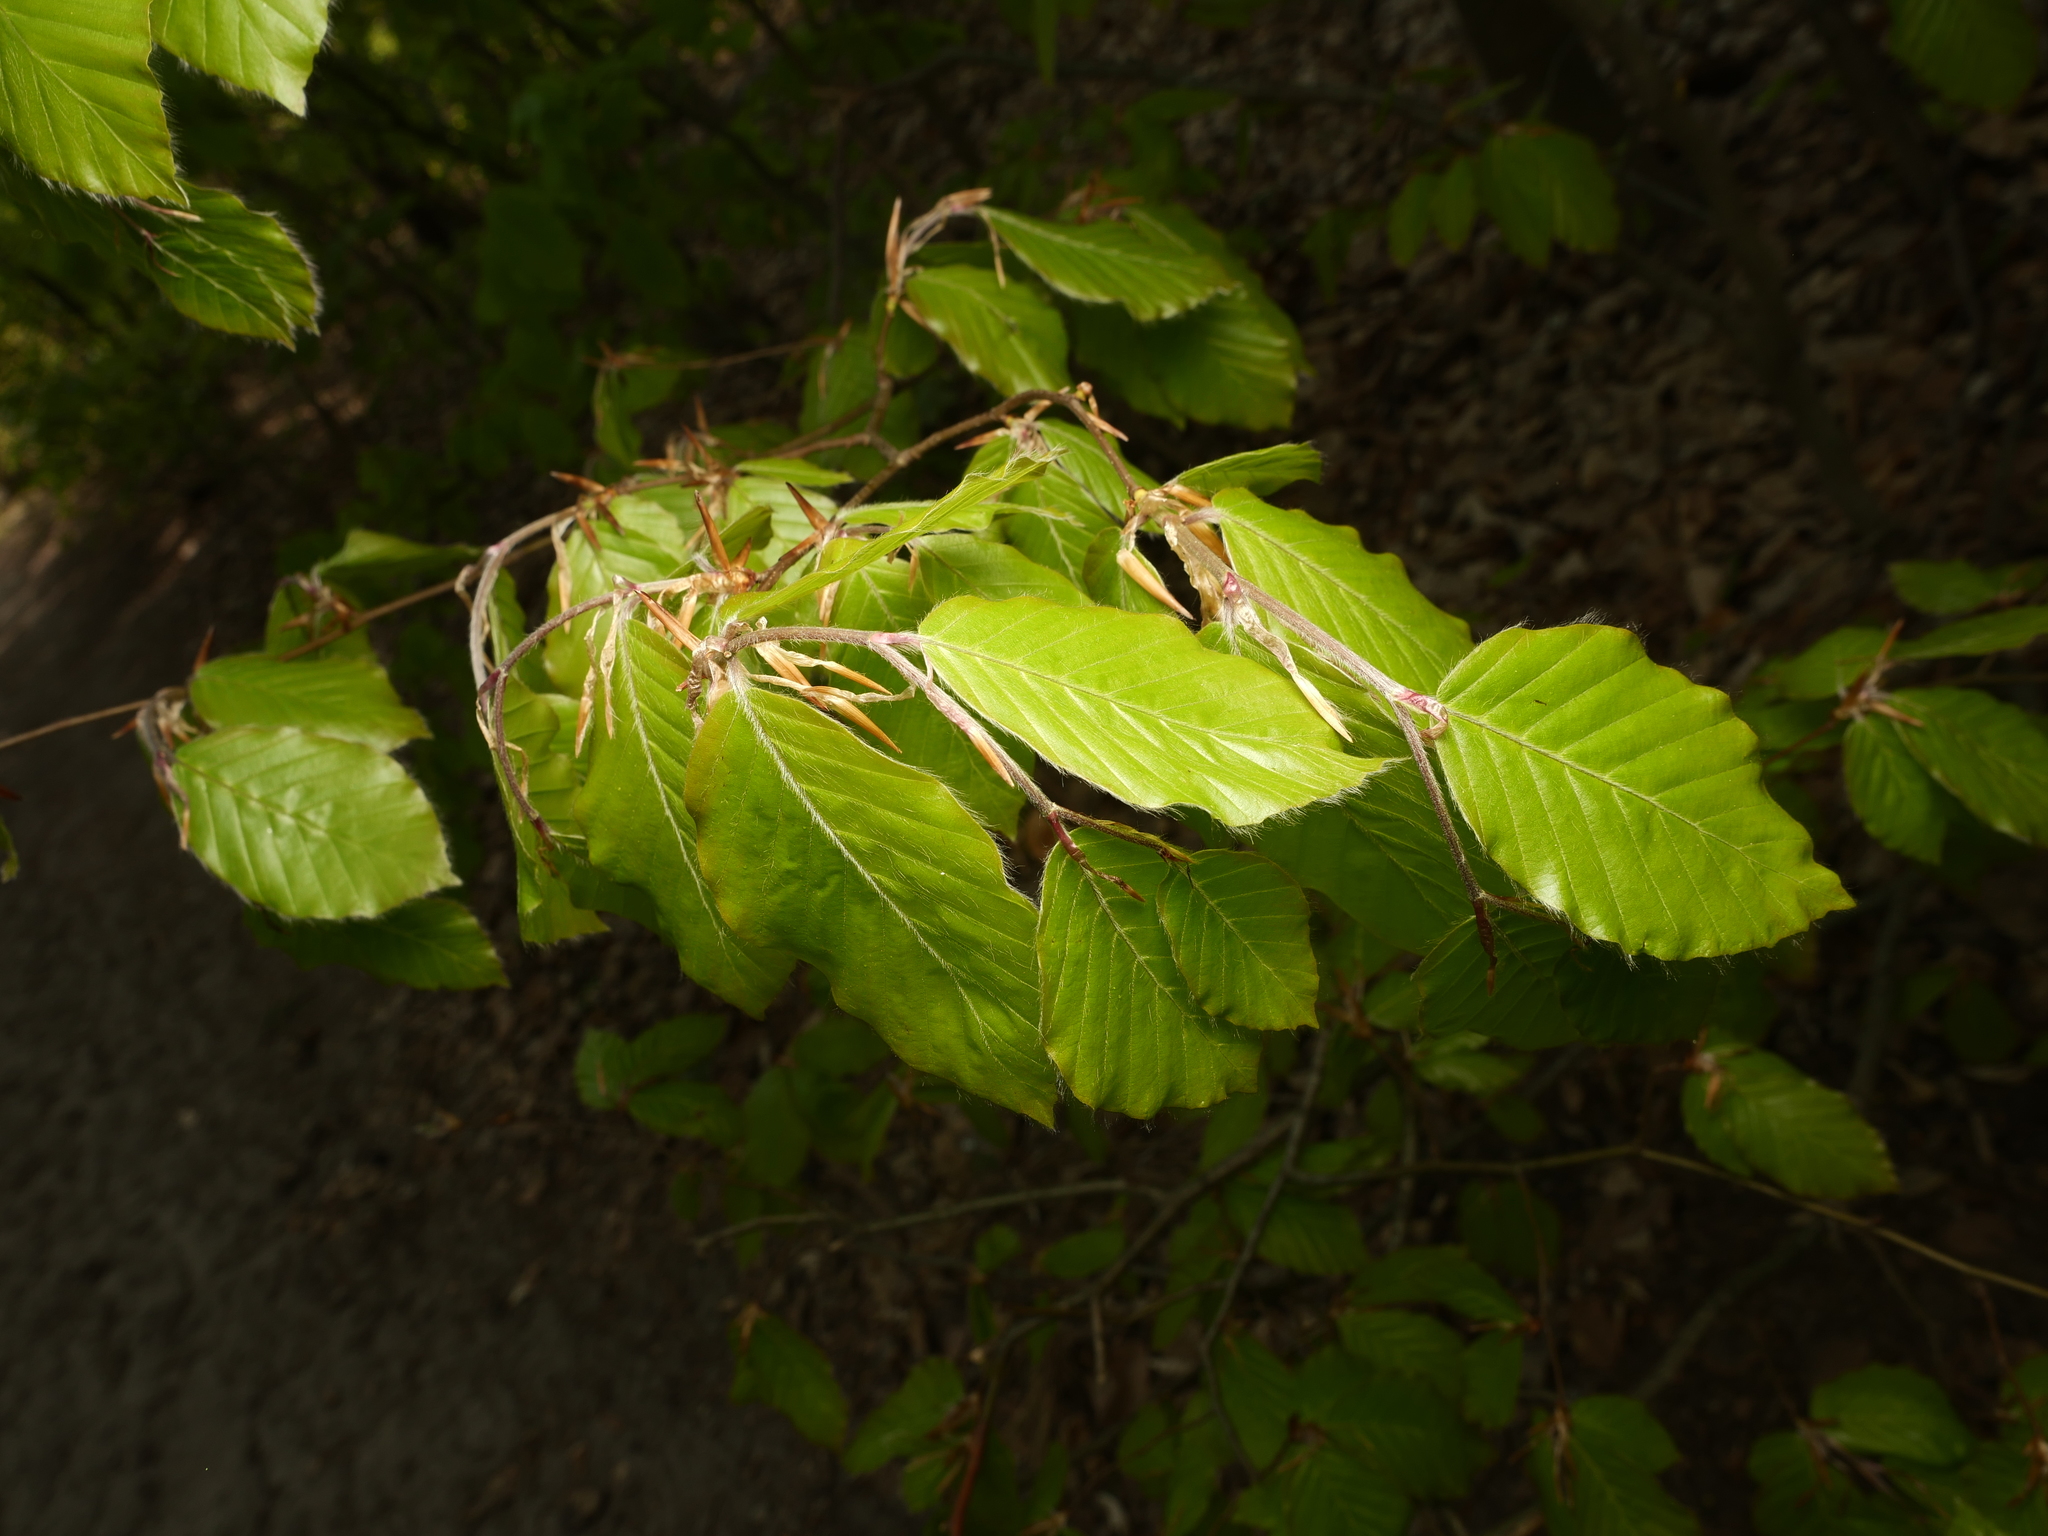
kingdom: Plantae
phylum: Tracheophyta
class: Magnoliopsida
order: Fagales
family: Fagaceae
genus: Fagus
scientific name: Fagus sylvatica
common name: Beech
